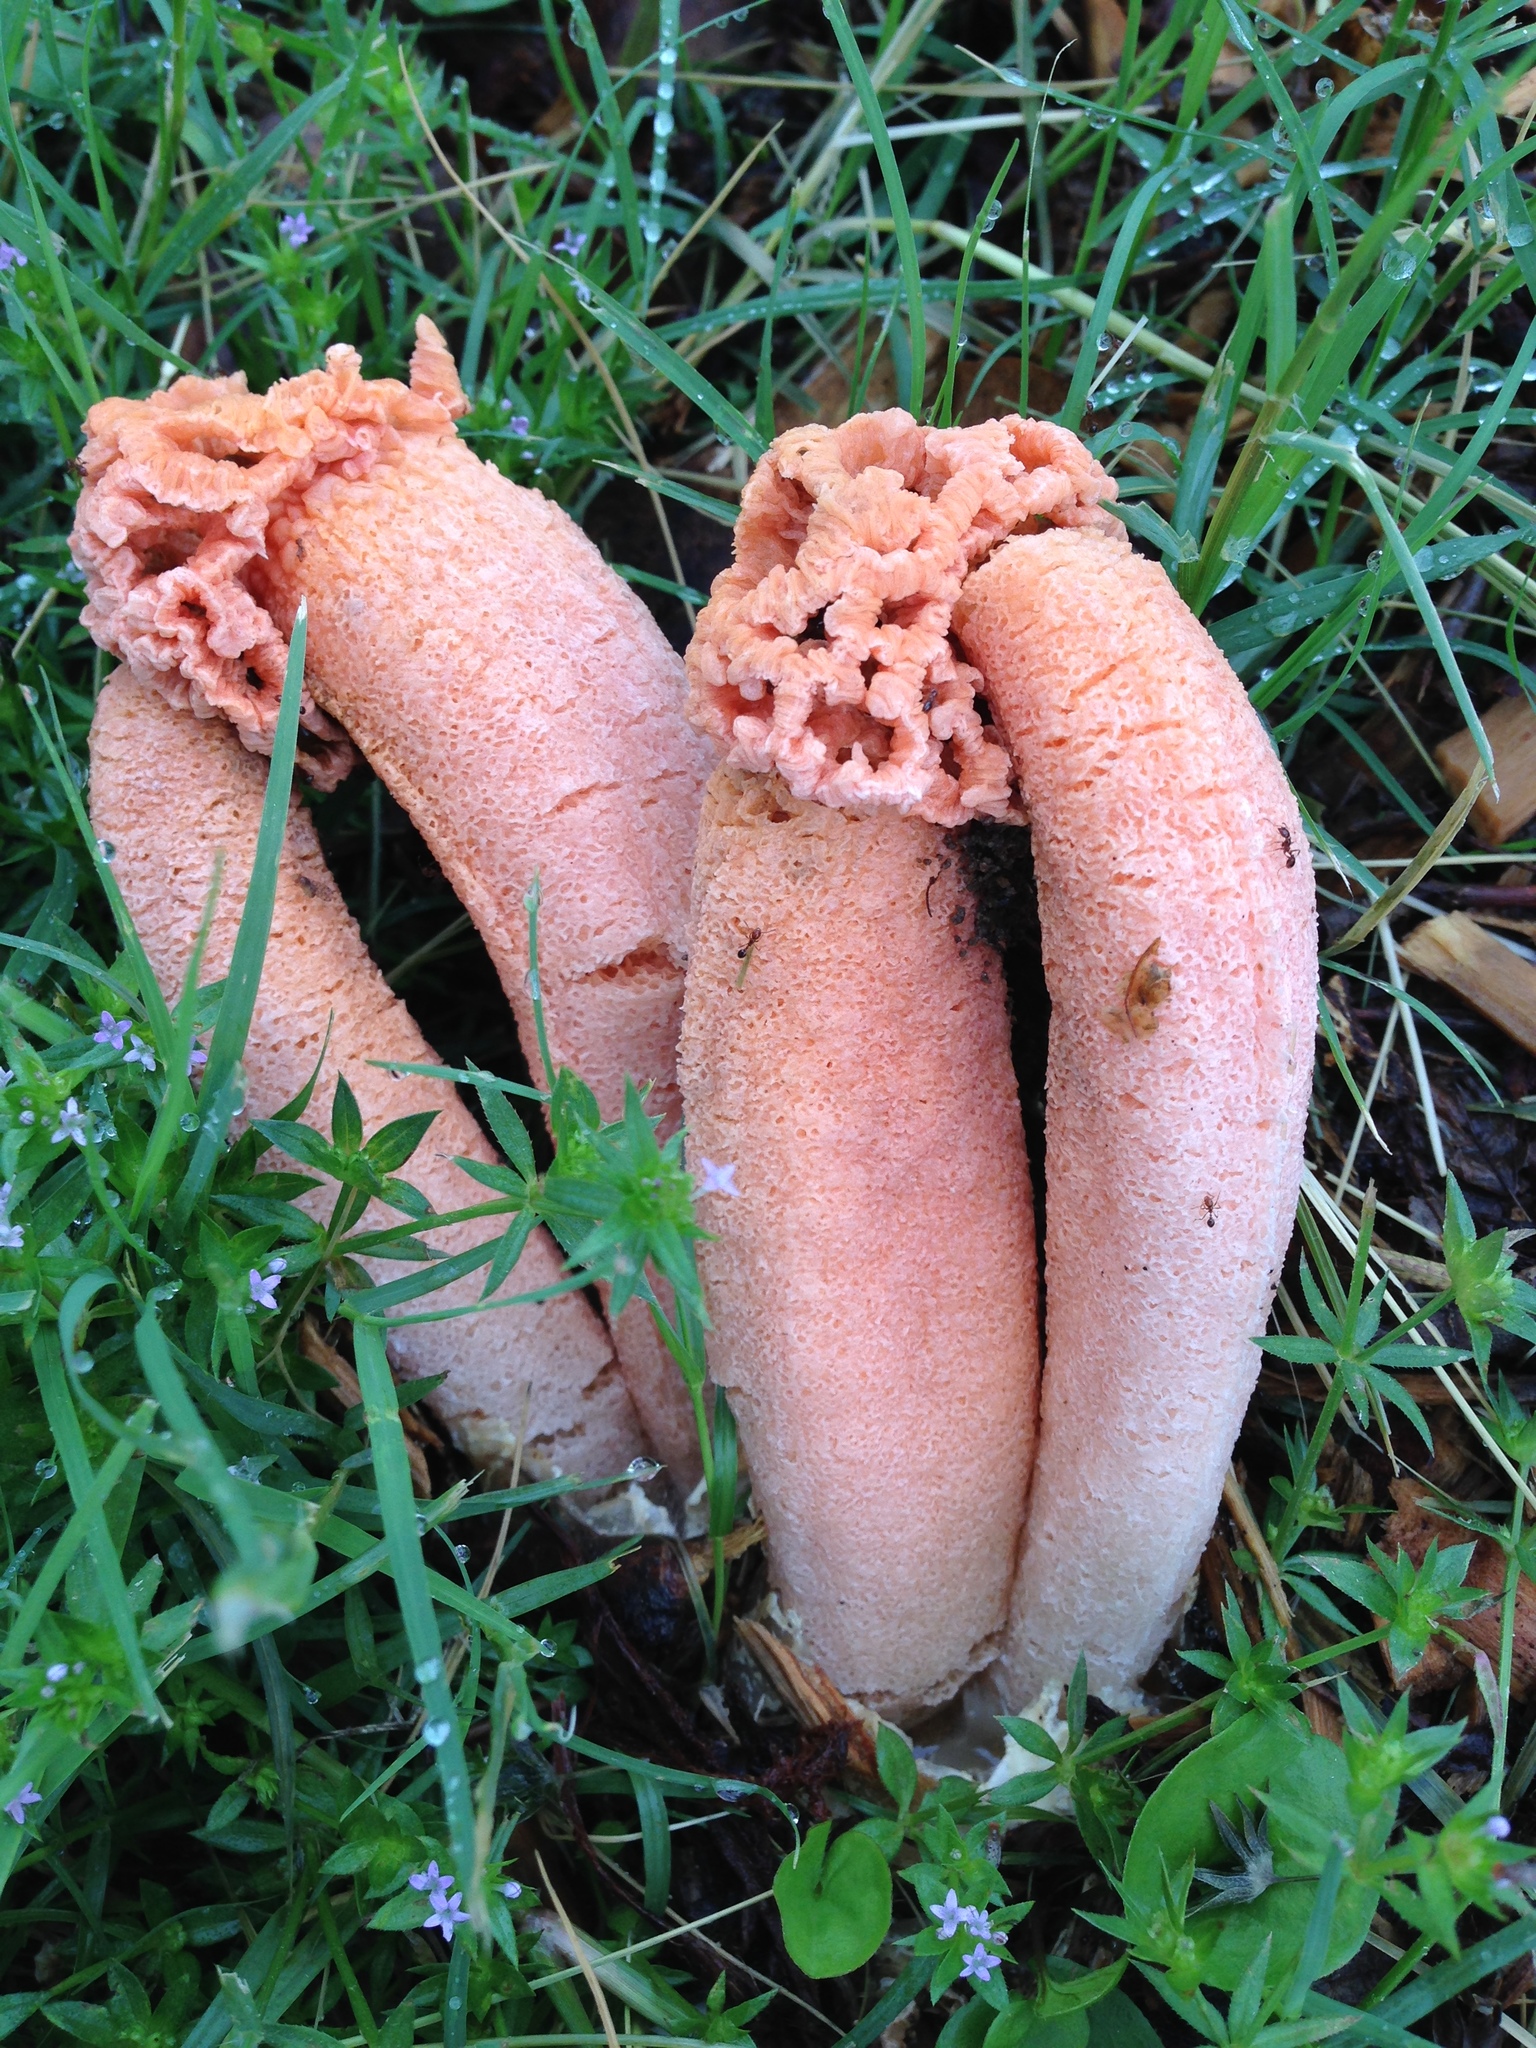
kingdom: Fungi
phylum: Basidiomycota
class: Agaricomycetes
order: Phallales
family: Phallaceae
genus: Lysurus
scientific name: Lysurus periphragmoides
